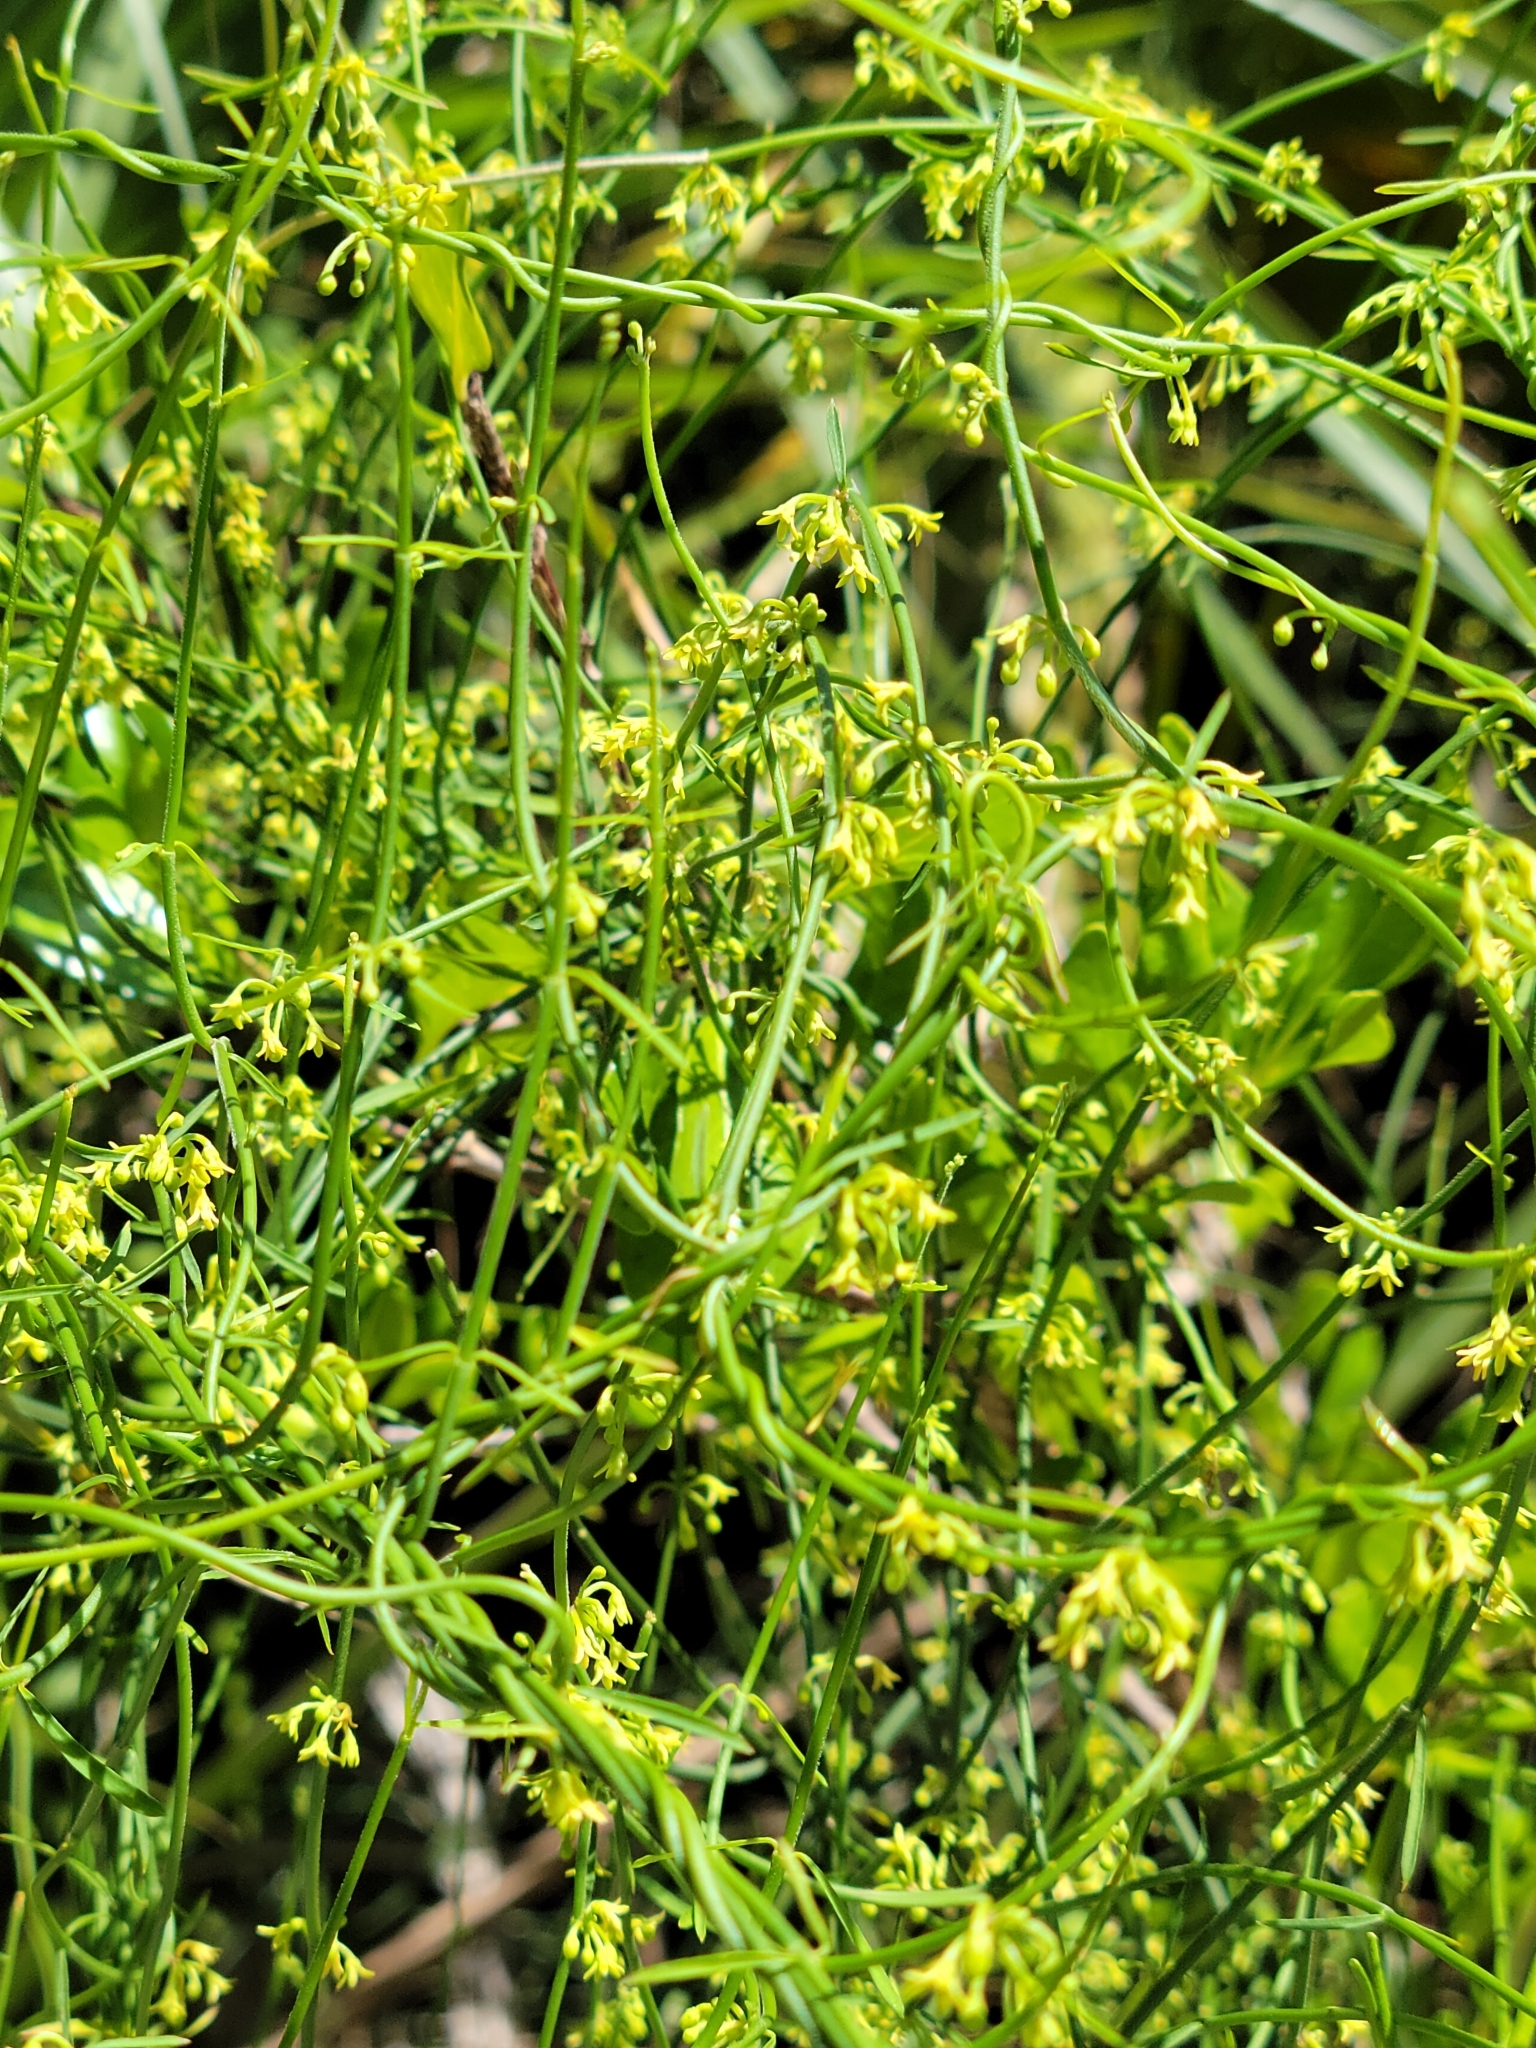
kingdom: Plantae
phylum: Tracheophyta
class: Magnoliopsida
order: Gentianales
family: Apocynaceae
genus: Orthosia
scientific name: Orthosia scoparia
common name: Leafless swallow-wort
